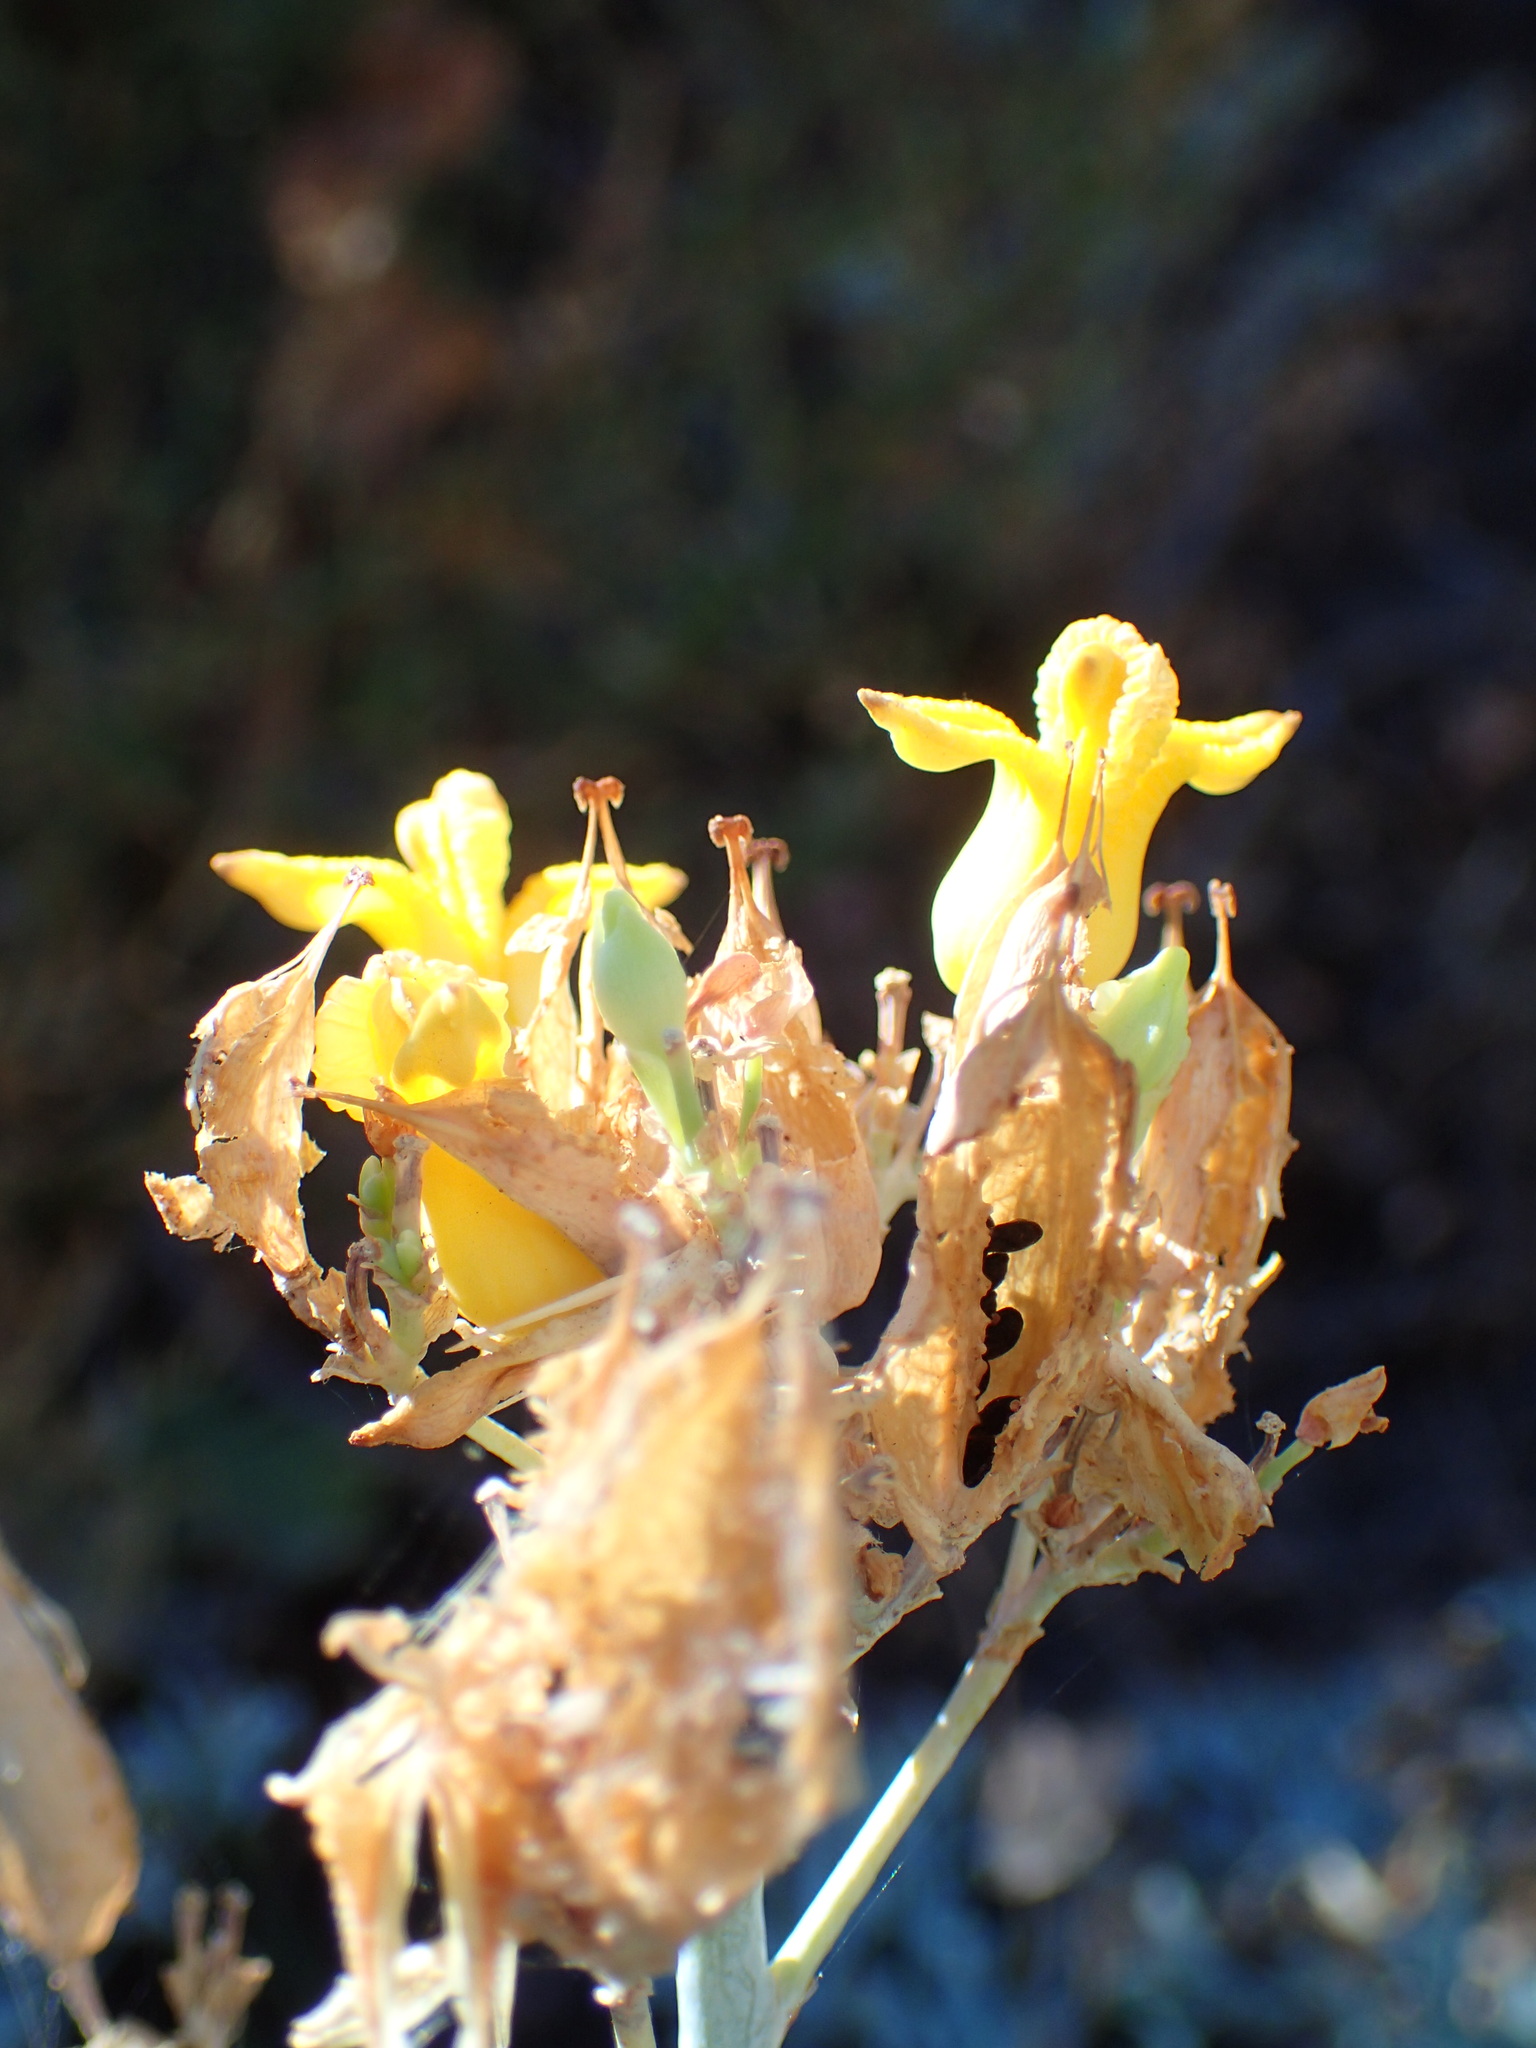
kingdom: Plantae
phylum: Tracheophyta
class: Magnoliopsida
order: Ranunculales
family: Papaveraceae
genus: Ehrendorferia
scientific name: Ehrendorferia chrysantha
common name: Golden eardrops
